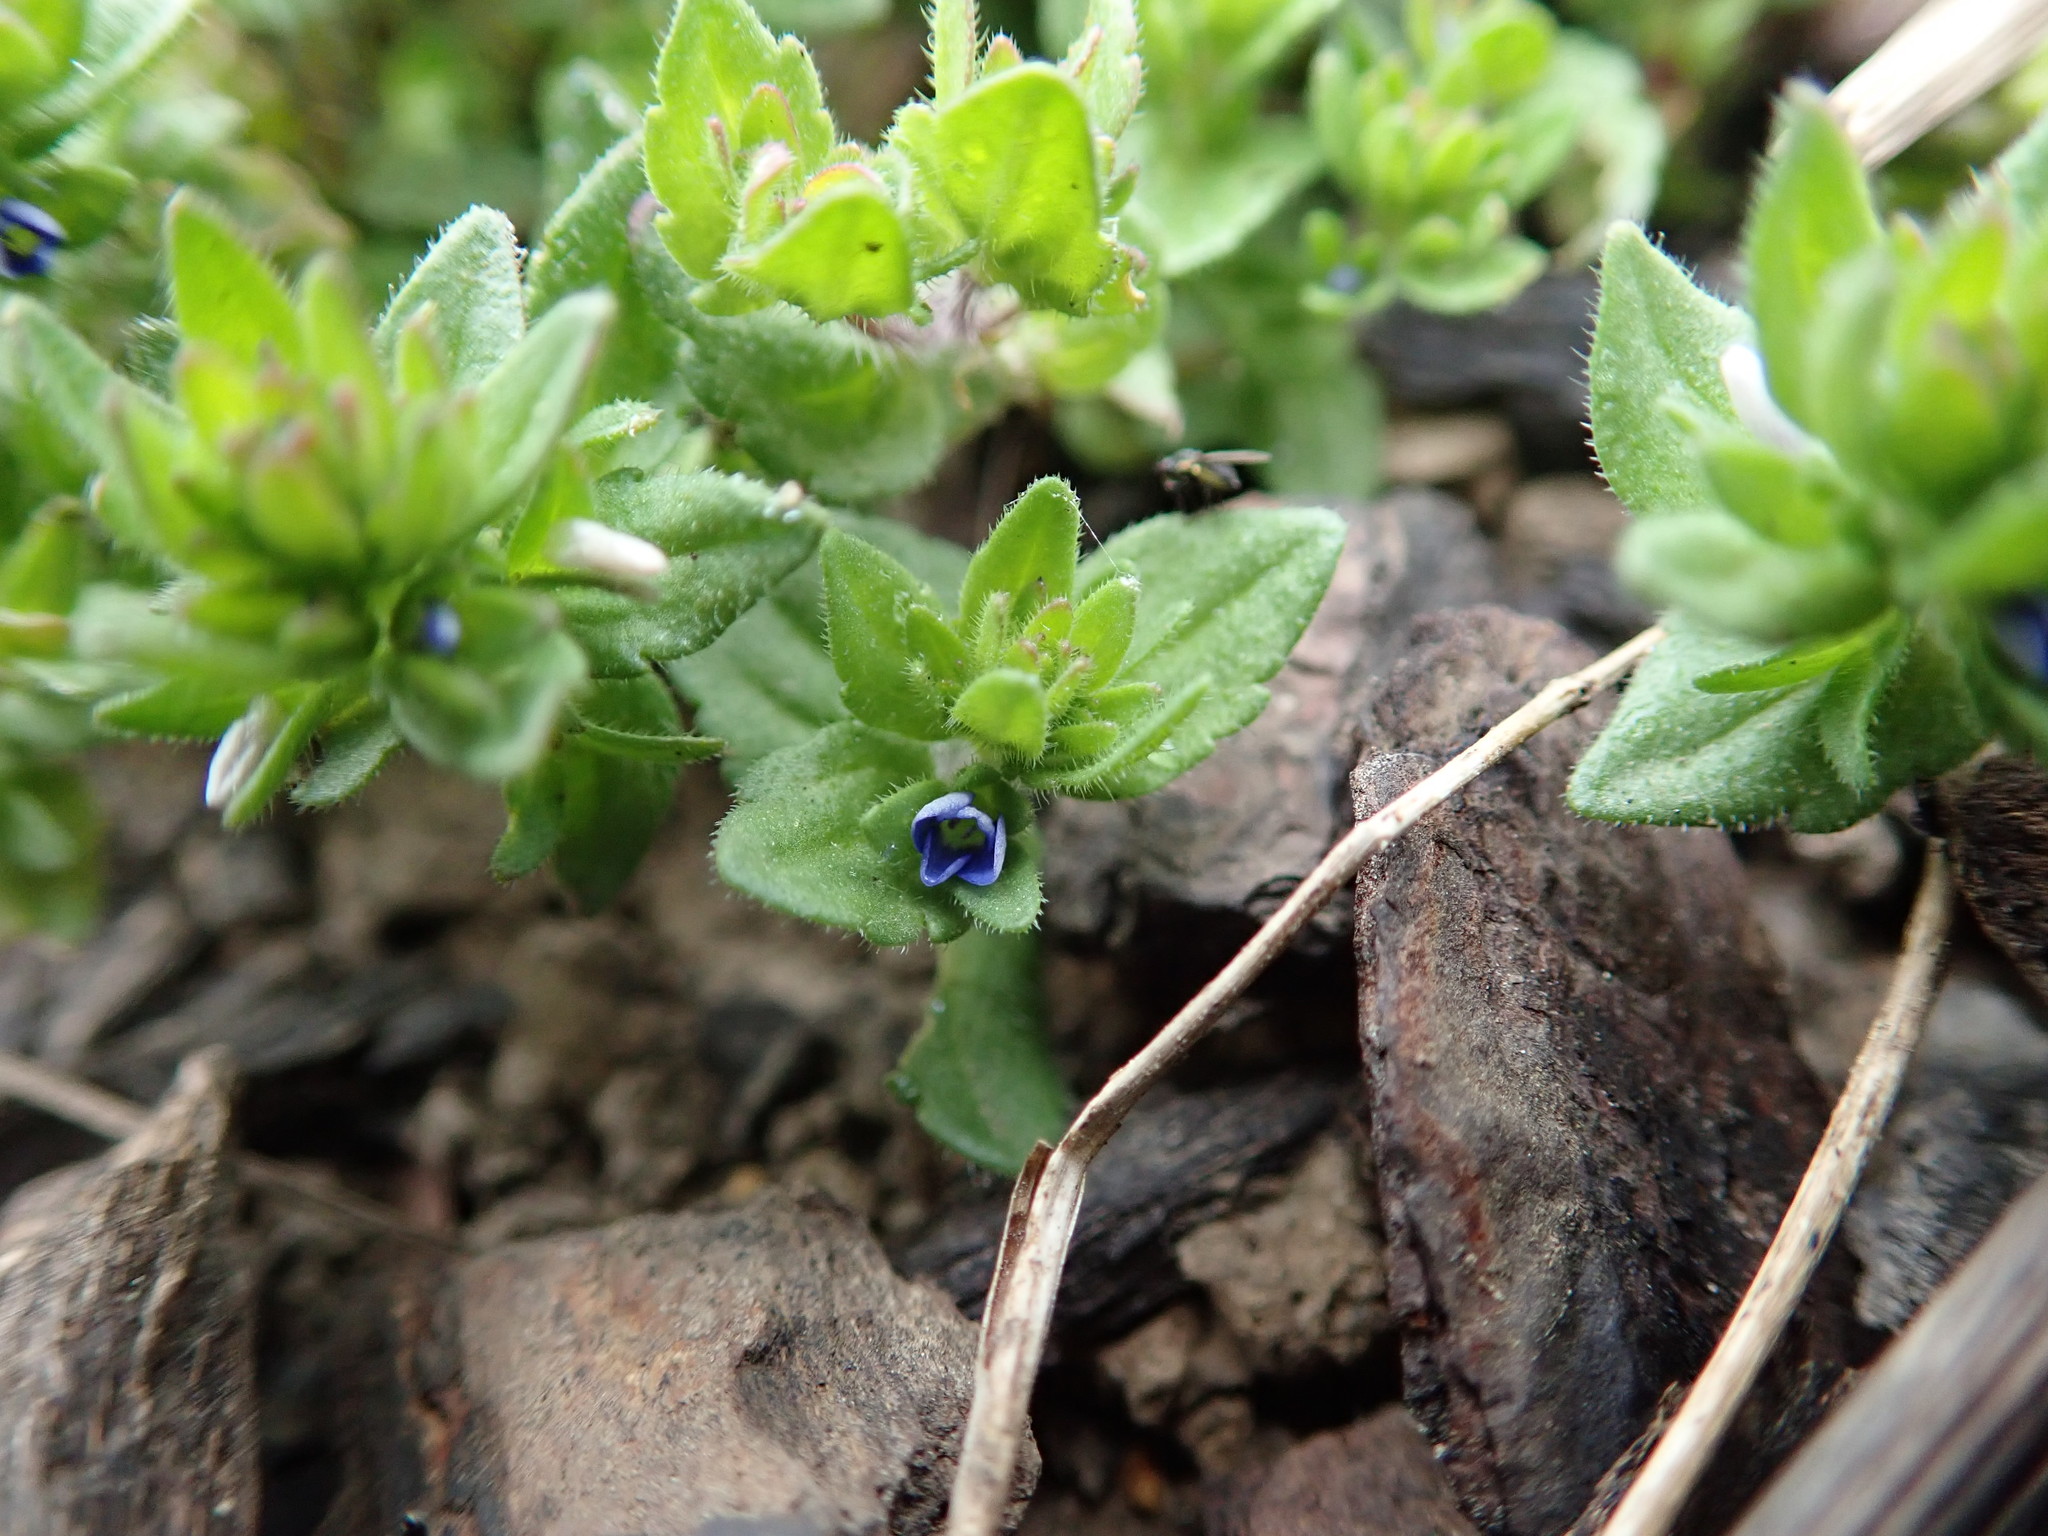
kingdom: Plantae
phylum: Tracheophyta
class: Magnoliopsida
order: Lamiales
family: Plantaginaceae
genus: Veronica
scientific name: Veronica arvensis
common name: Corn speedwell
